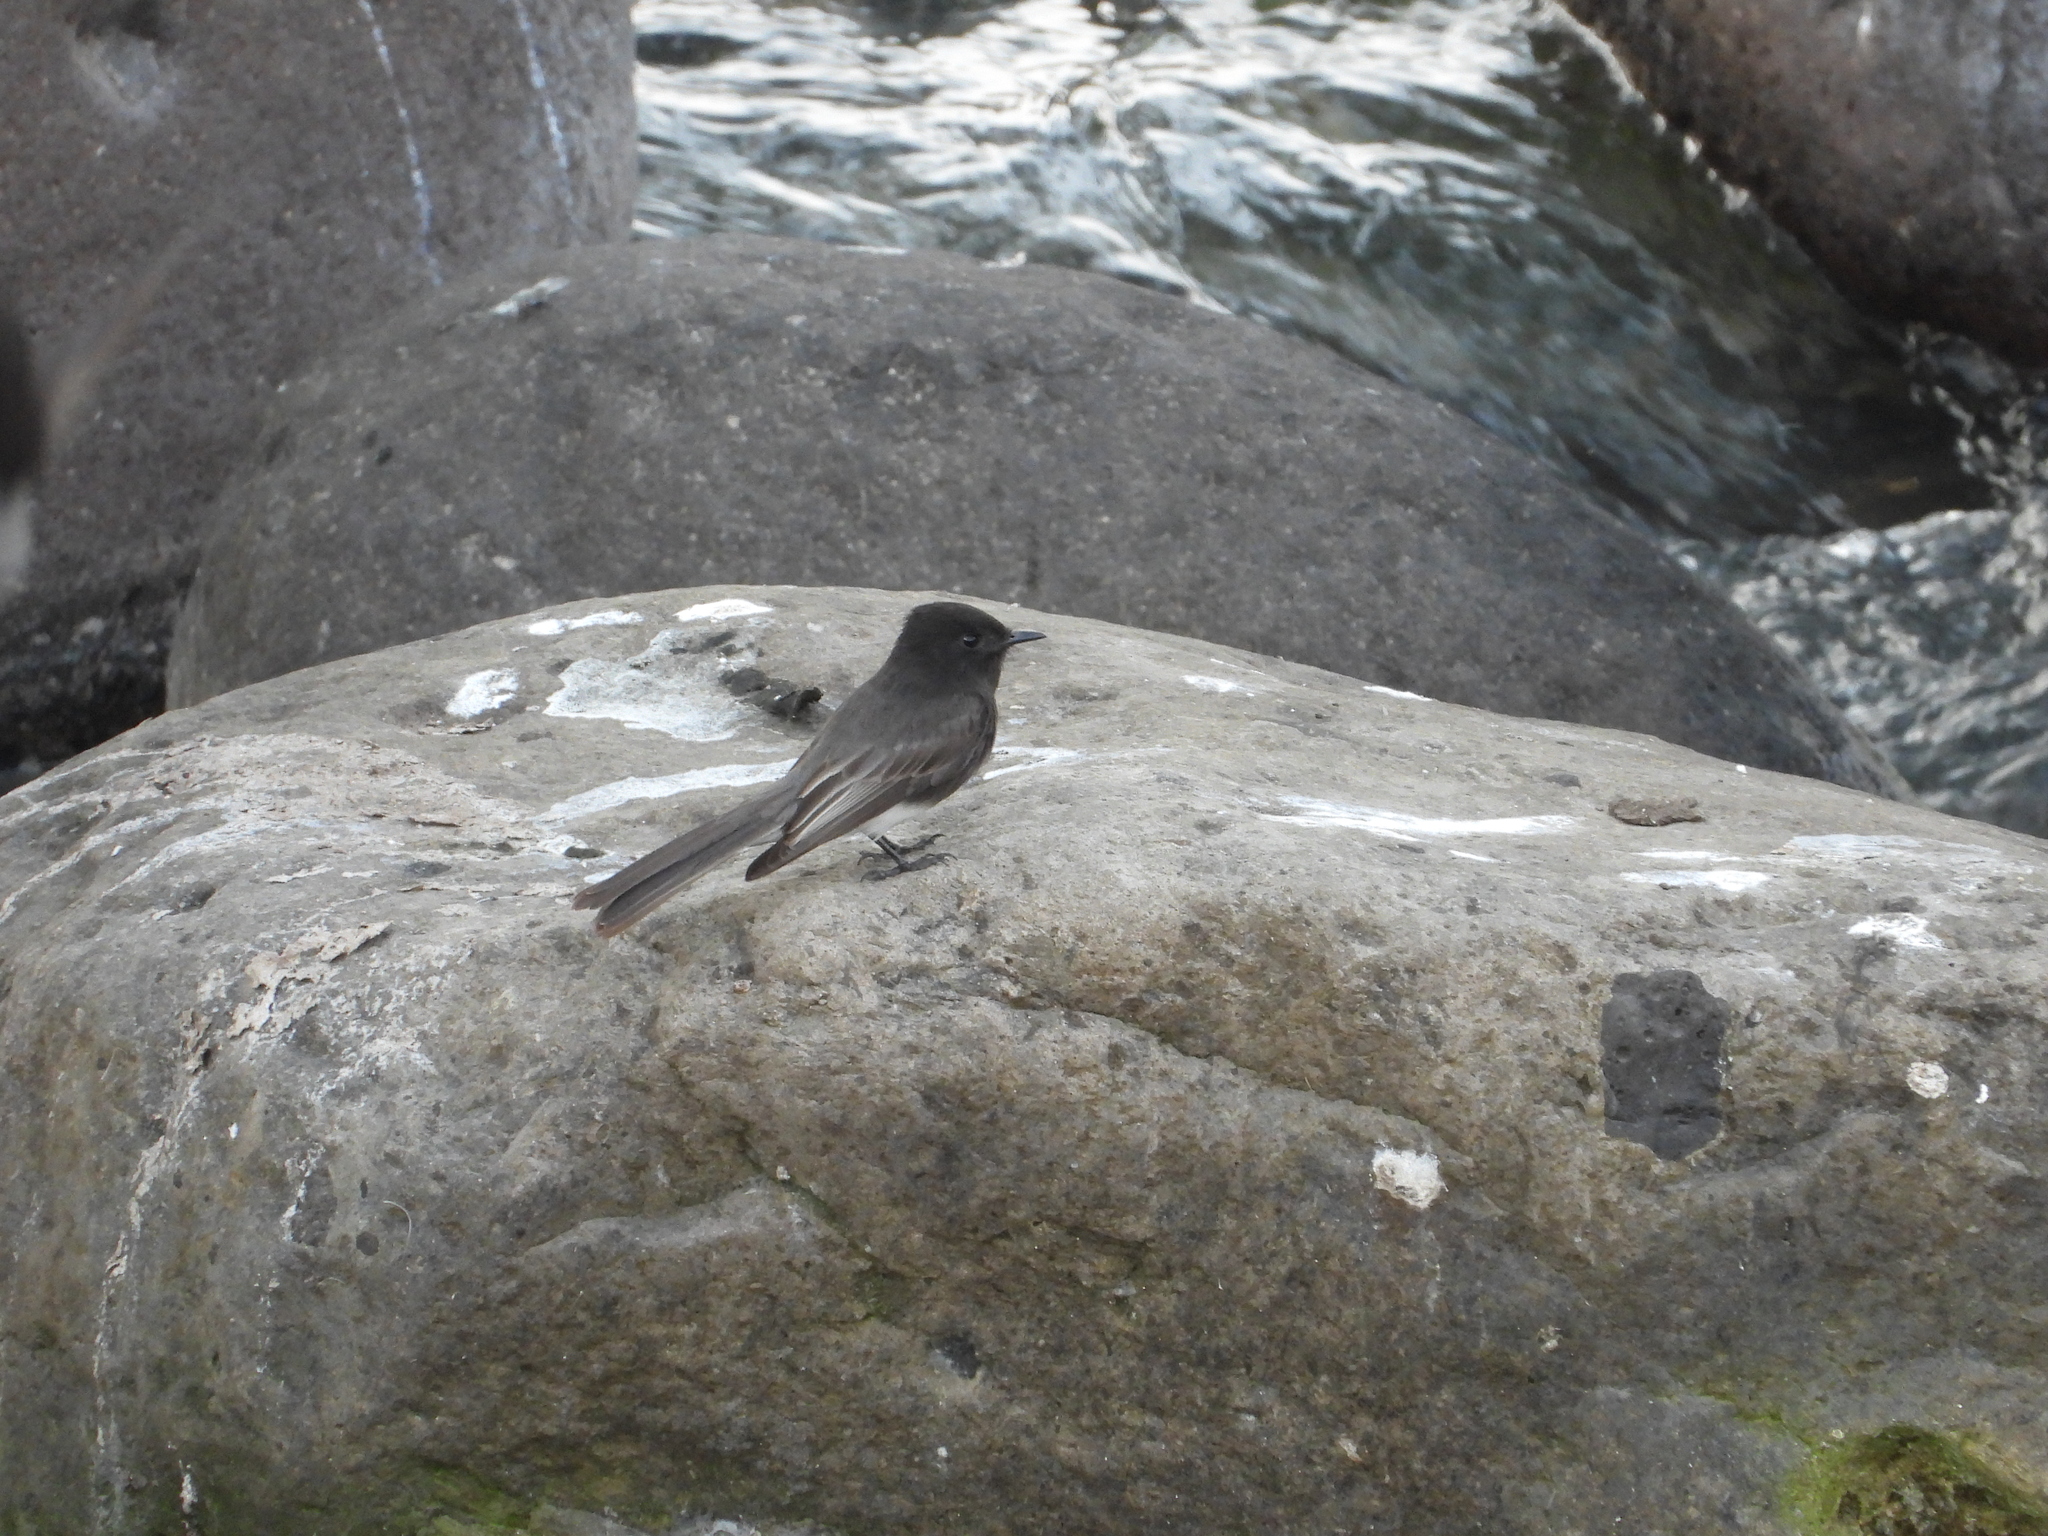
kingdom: Animalia
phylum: Chordata
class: Aves
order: Passeriformes
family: Tyrannidae
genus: Sayornis
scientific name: Sayornis nigricans
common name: Black phoebe
